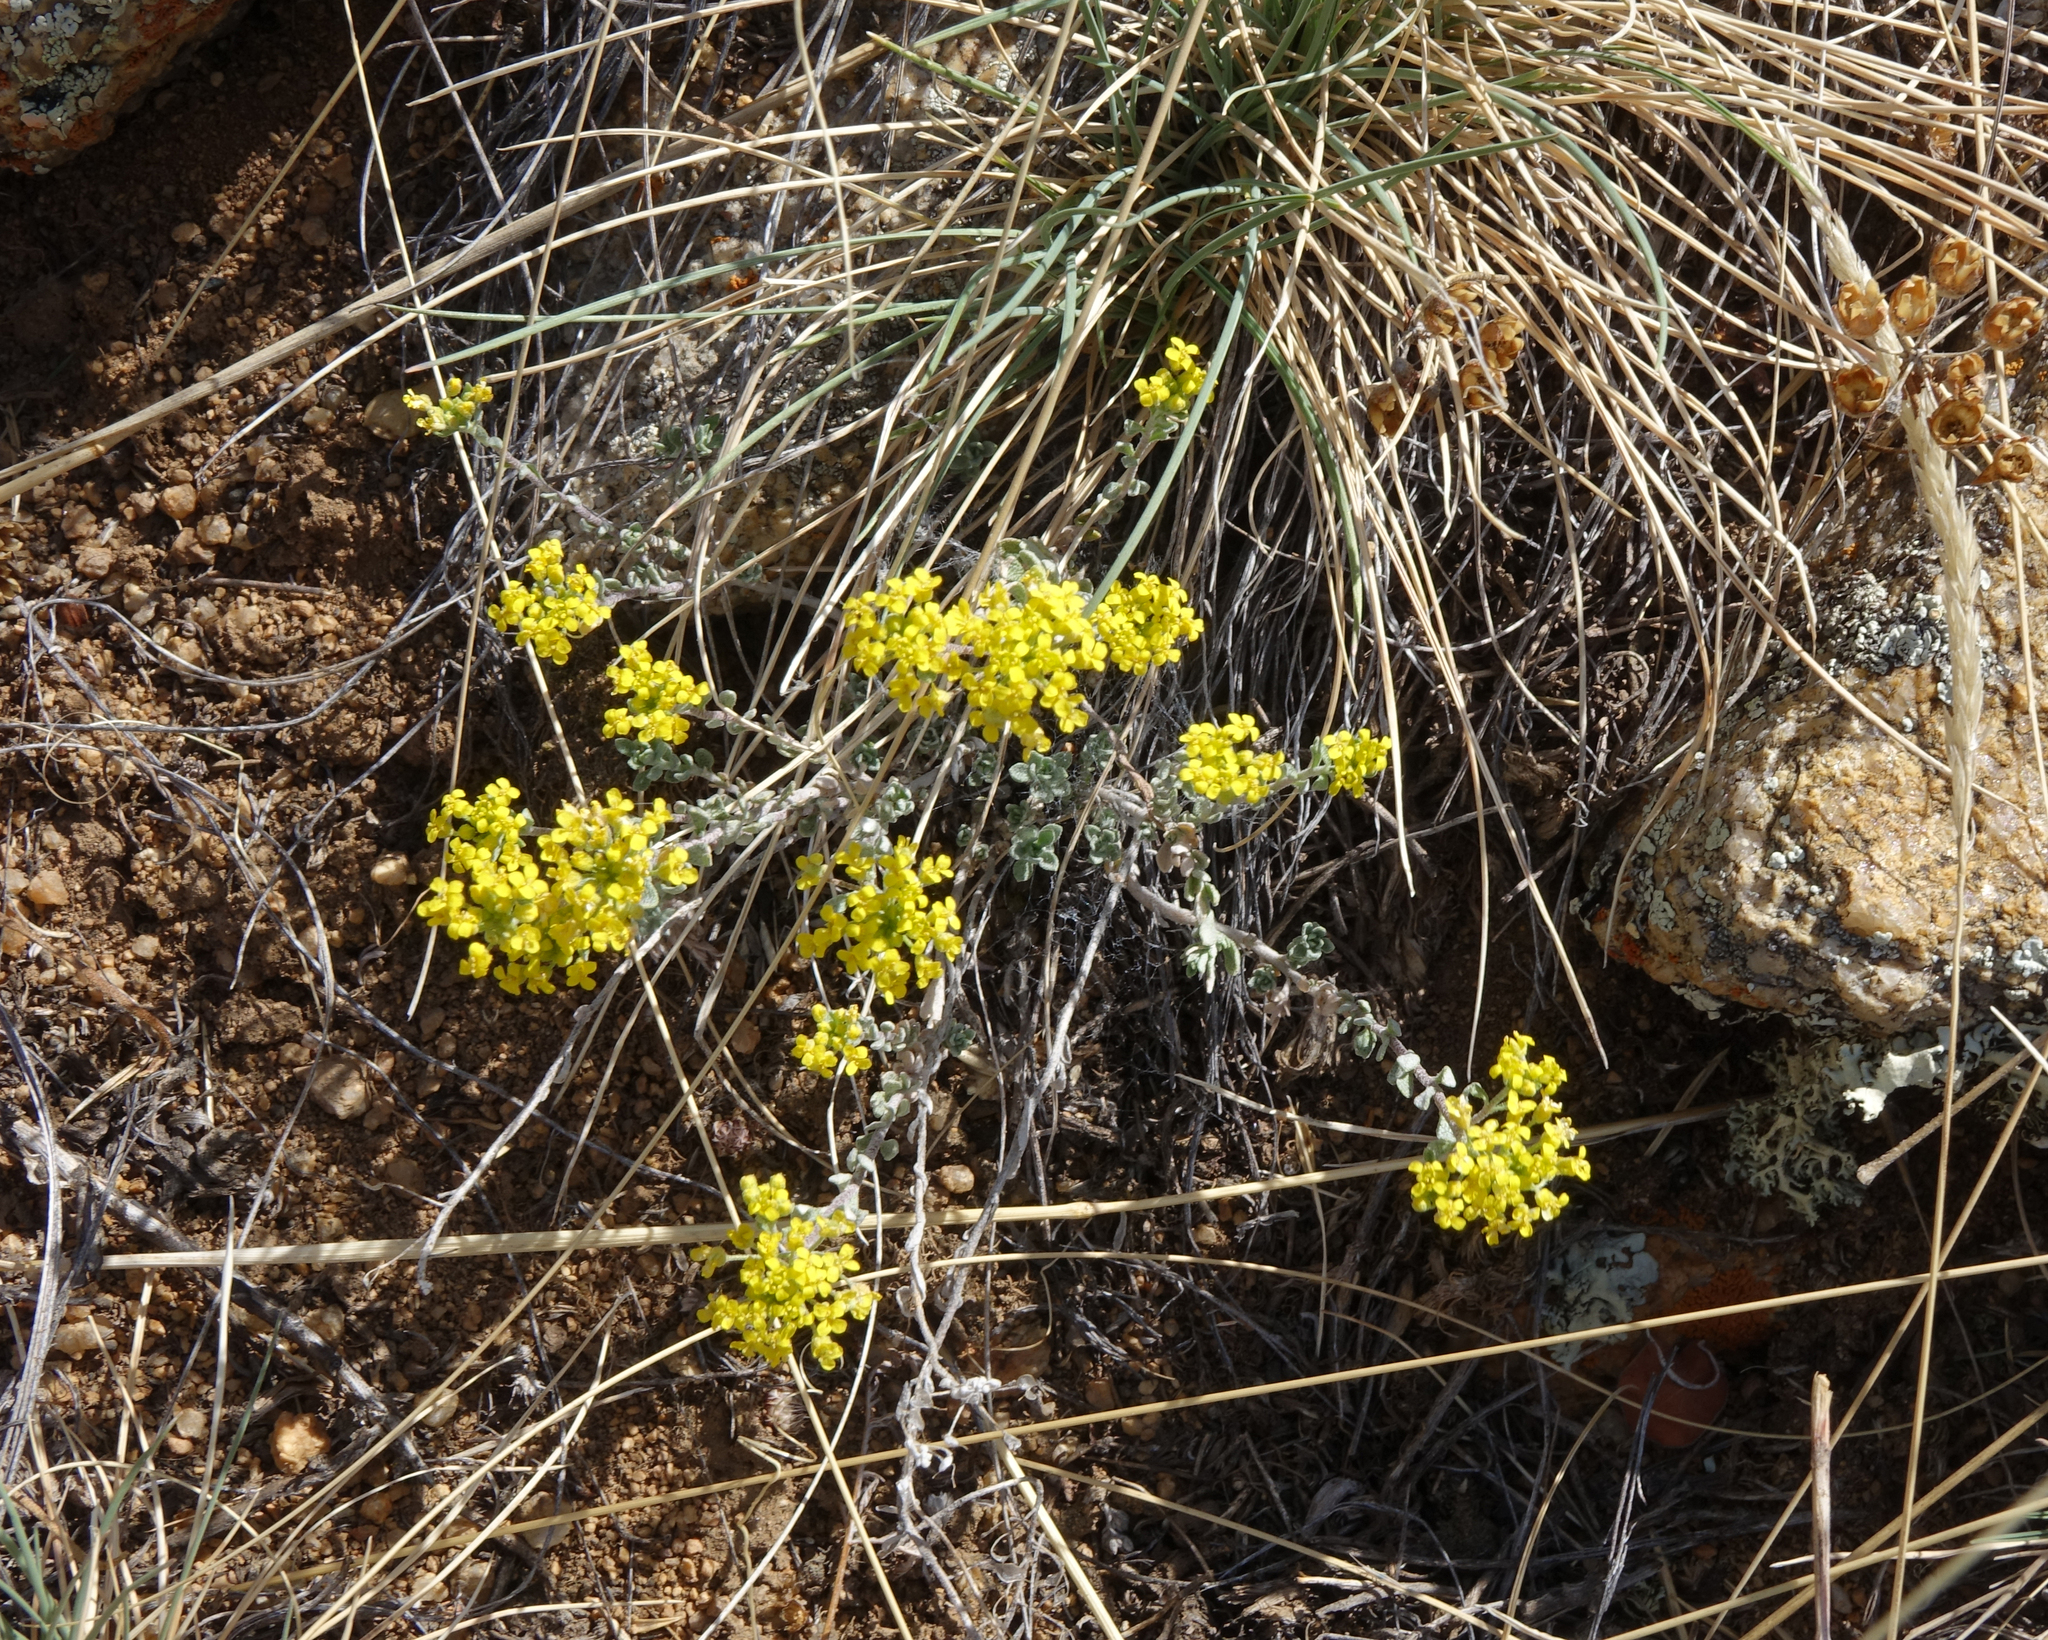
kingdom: Plantae
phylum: Tracheophyta
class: Magnoliopsida
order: Brassicales
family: Brassicaceae
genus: Odontarrhena
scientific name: Odontarrhena obovata
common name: American alyssum
